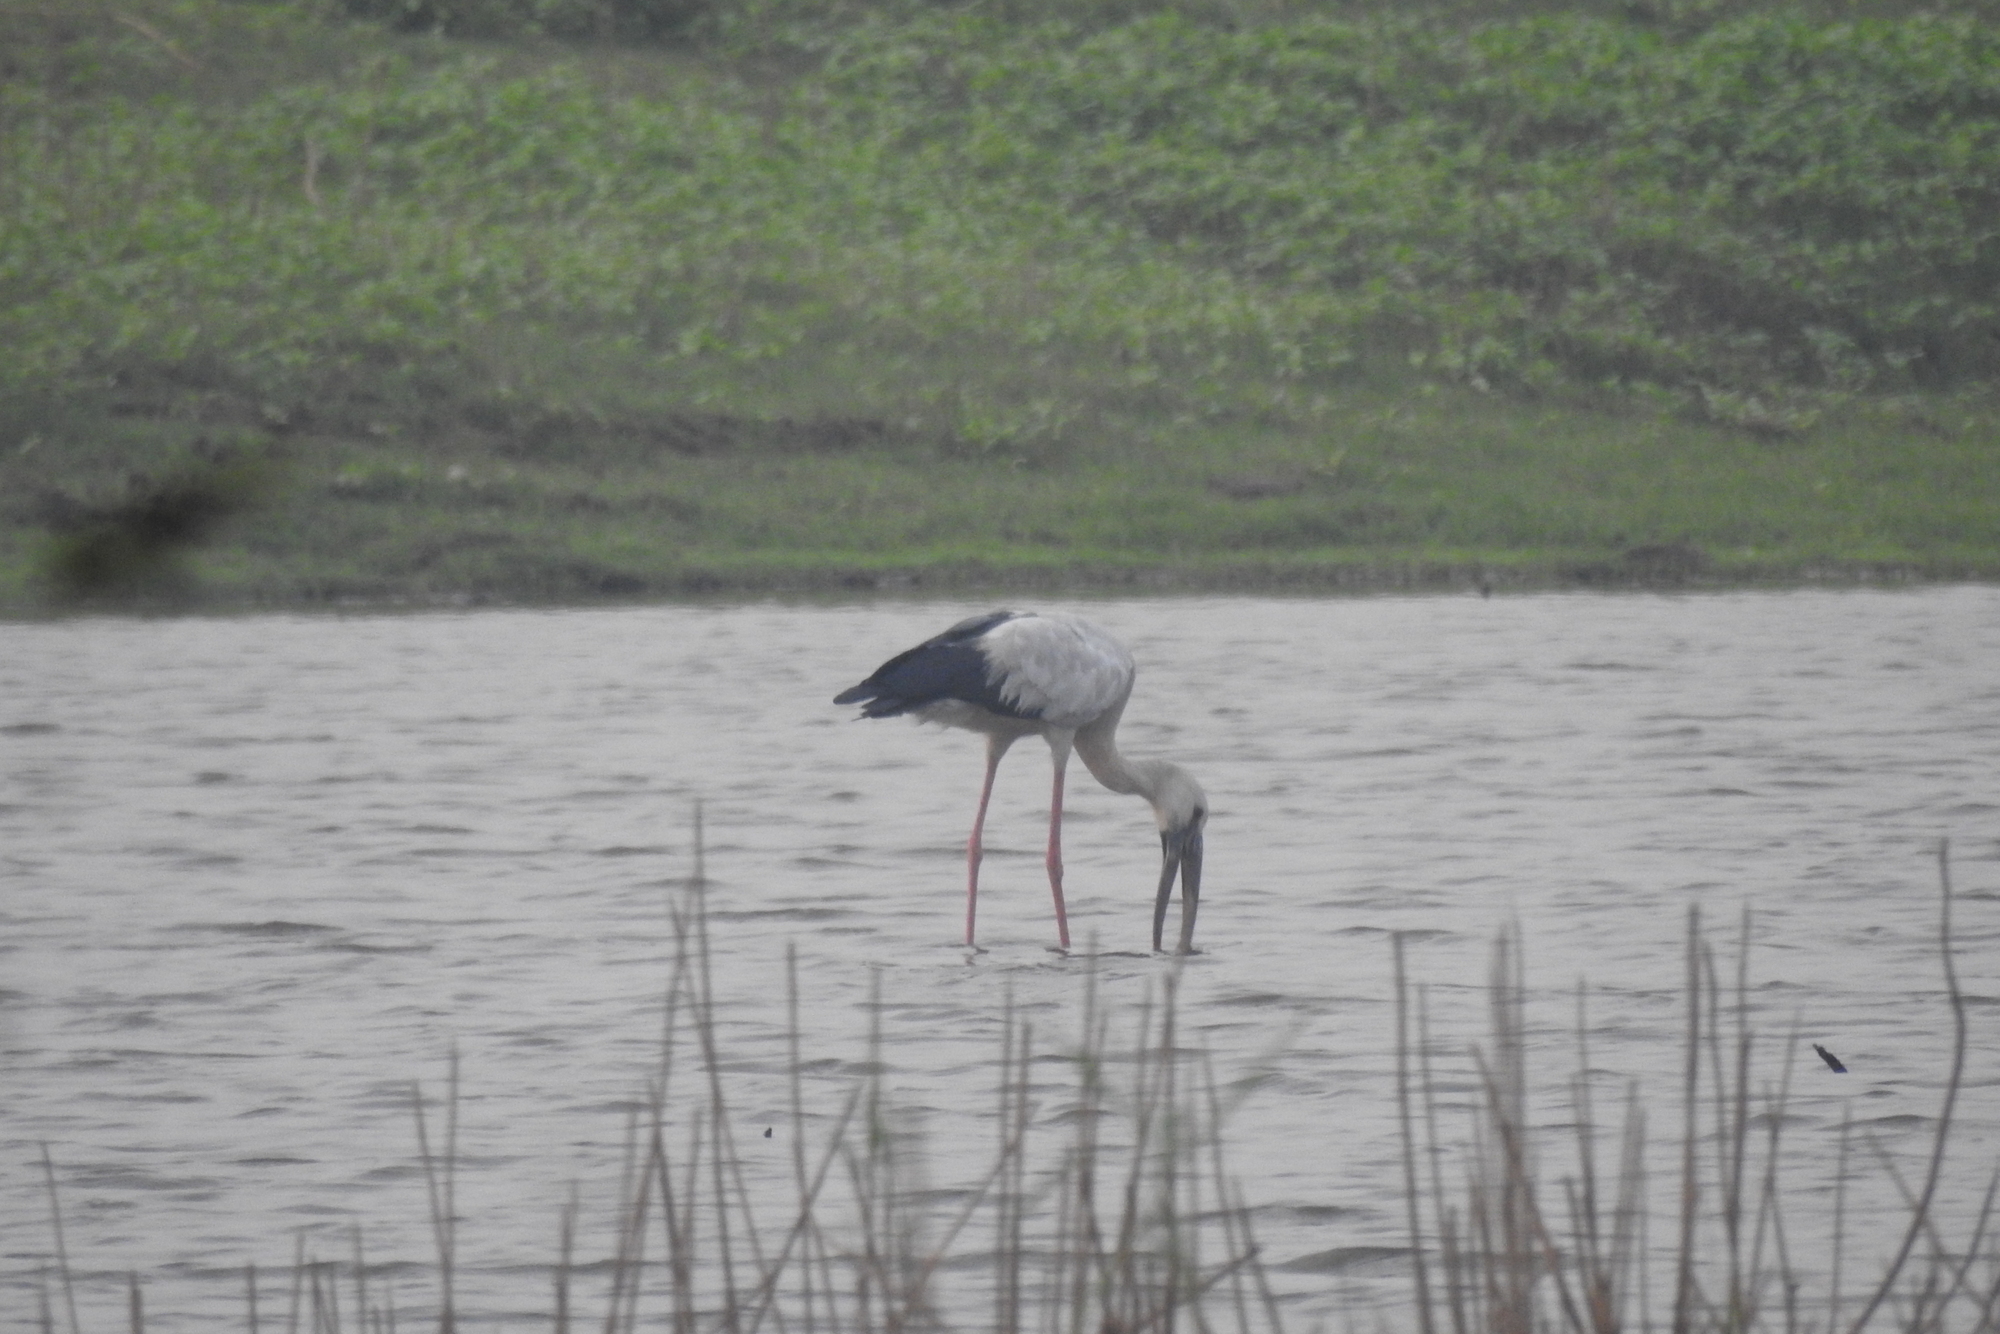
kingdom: Animalia
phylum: Chordata
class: Aves
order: Ciconiiformes
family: Ciconiidae
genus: Anastomus
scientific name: Anastomus oscitans
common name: Asian openbill
